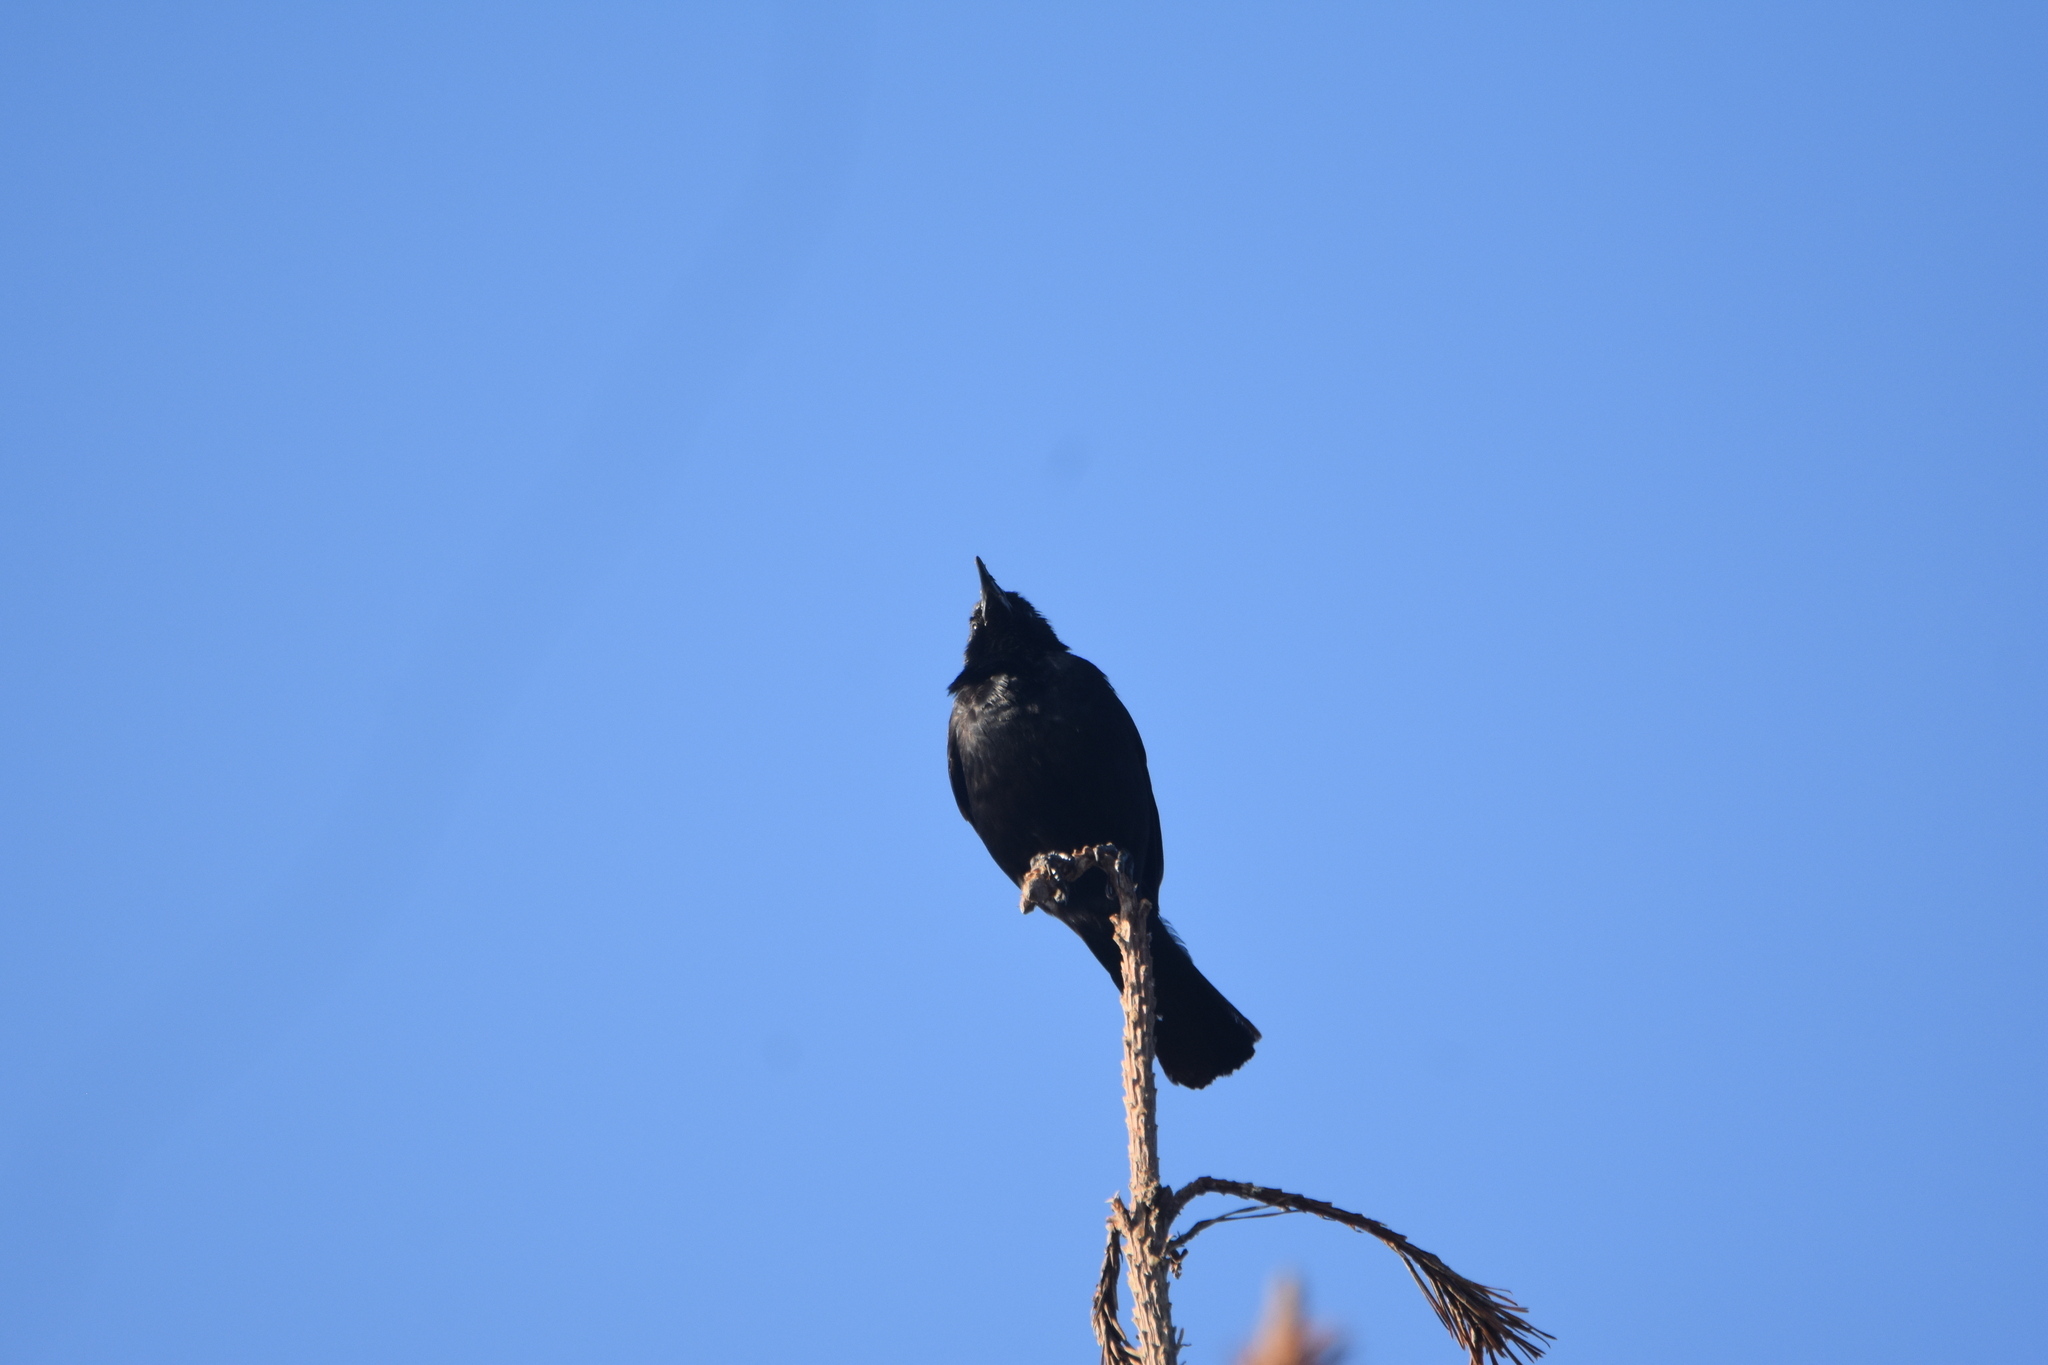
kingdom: Animalia
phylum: Chordata
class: Aves
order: Passeriformes
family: Icteridae
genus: Curaeus
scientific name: Curaeus curaeus
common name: Austral blackbird
